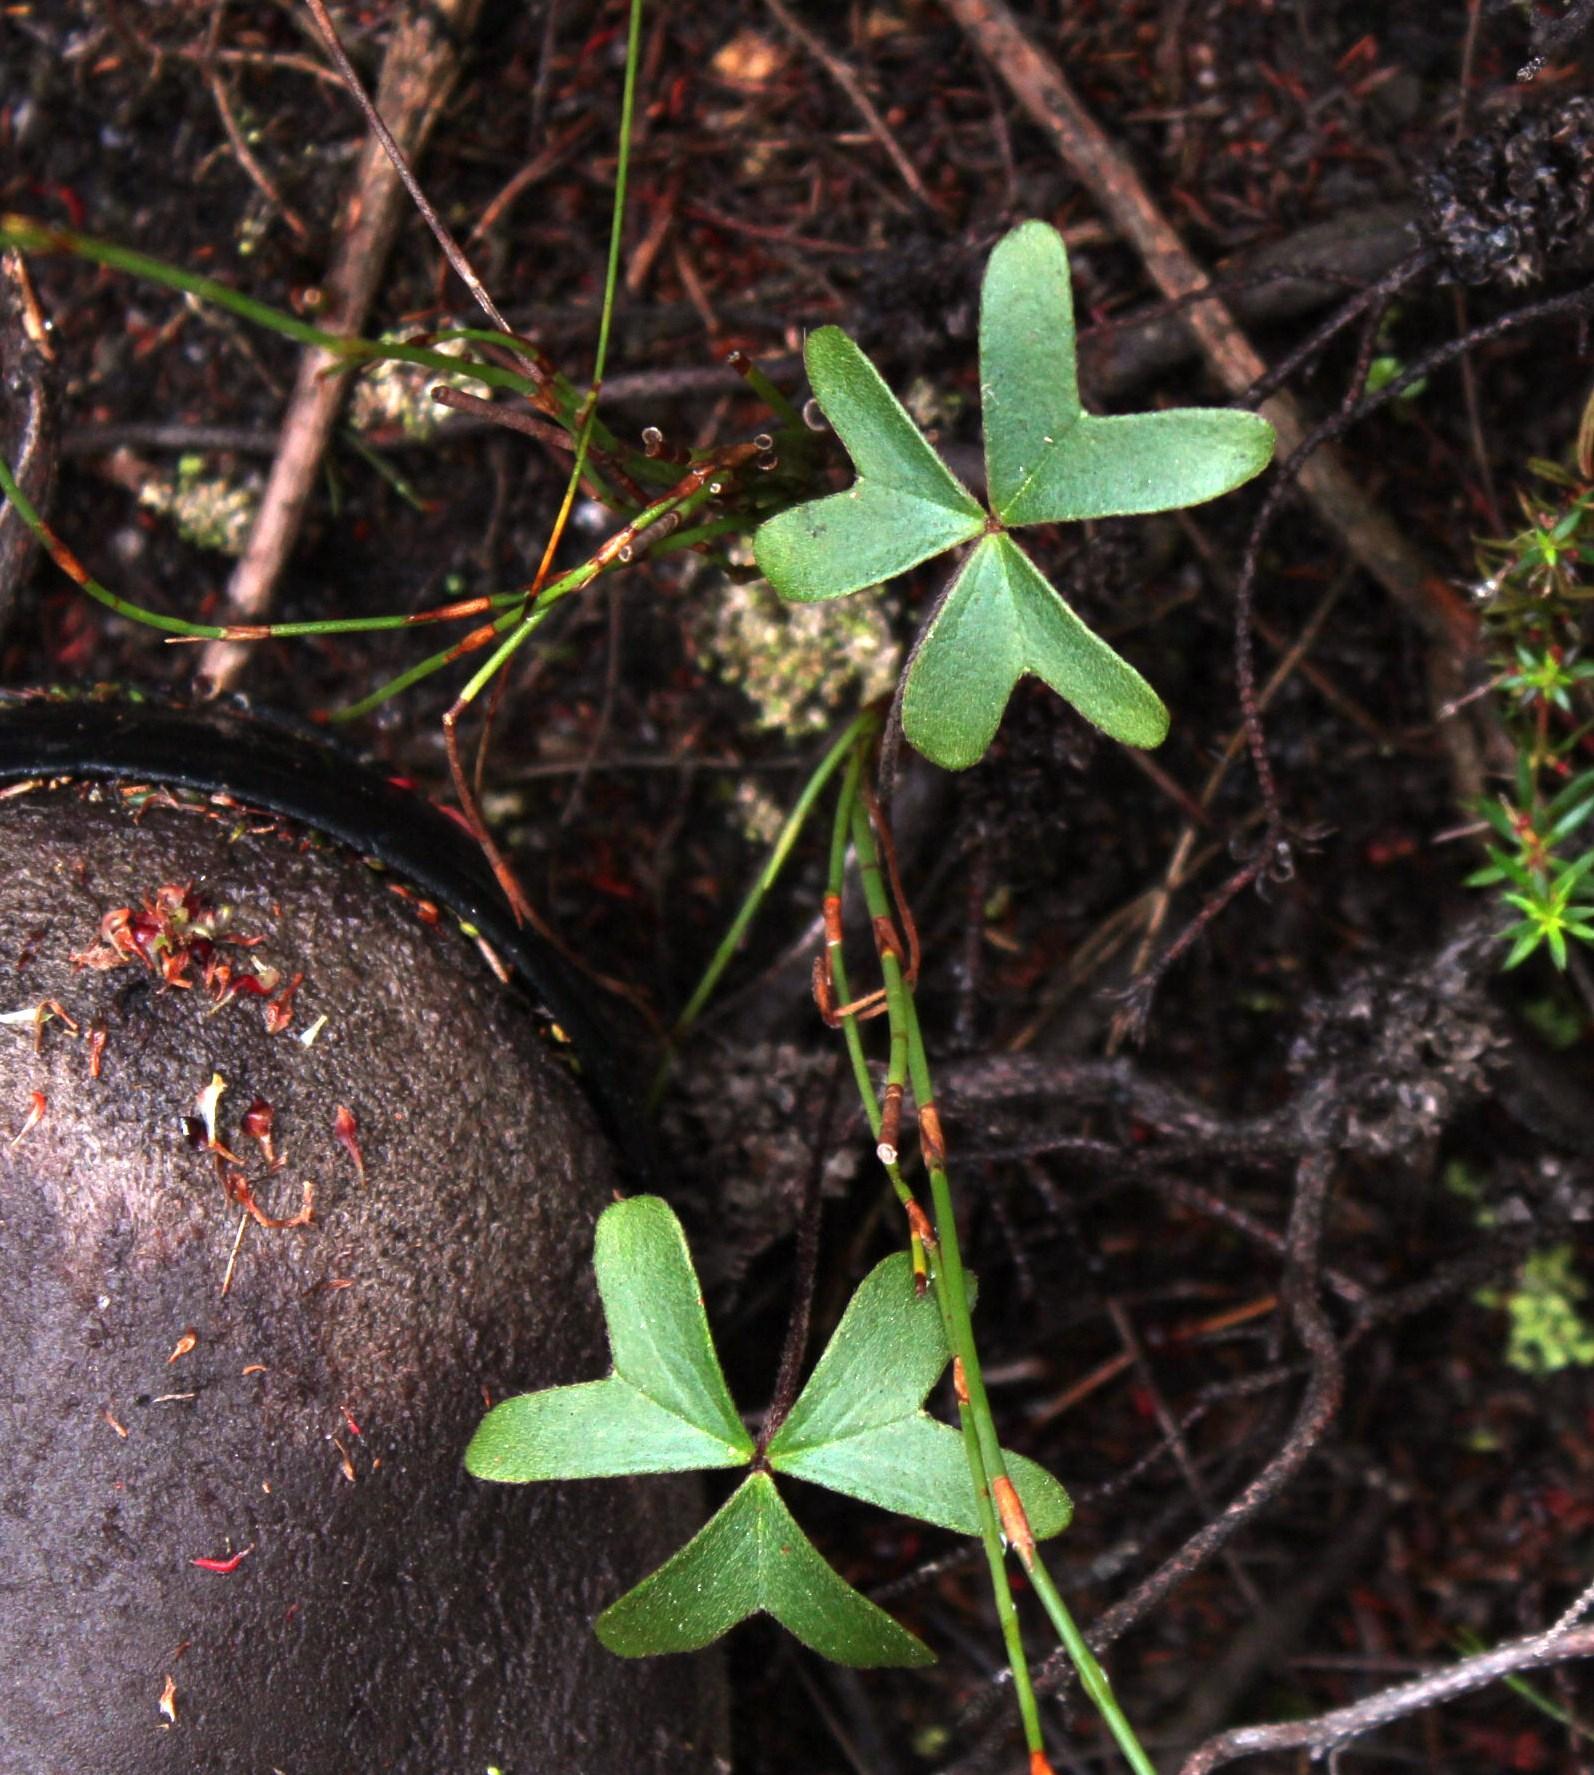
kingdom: Plantae
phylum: Tracheophyta
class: Magnoliopsida
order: Oxalidales
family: Oxalidaceae
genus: Oxalis
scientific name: Oxalis truncatula
